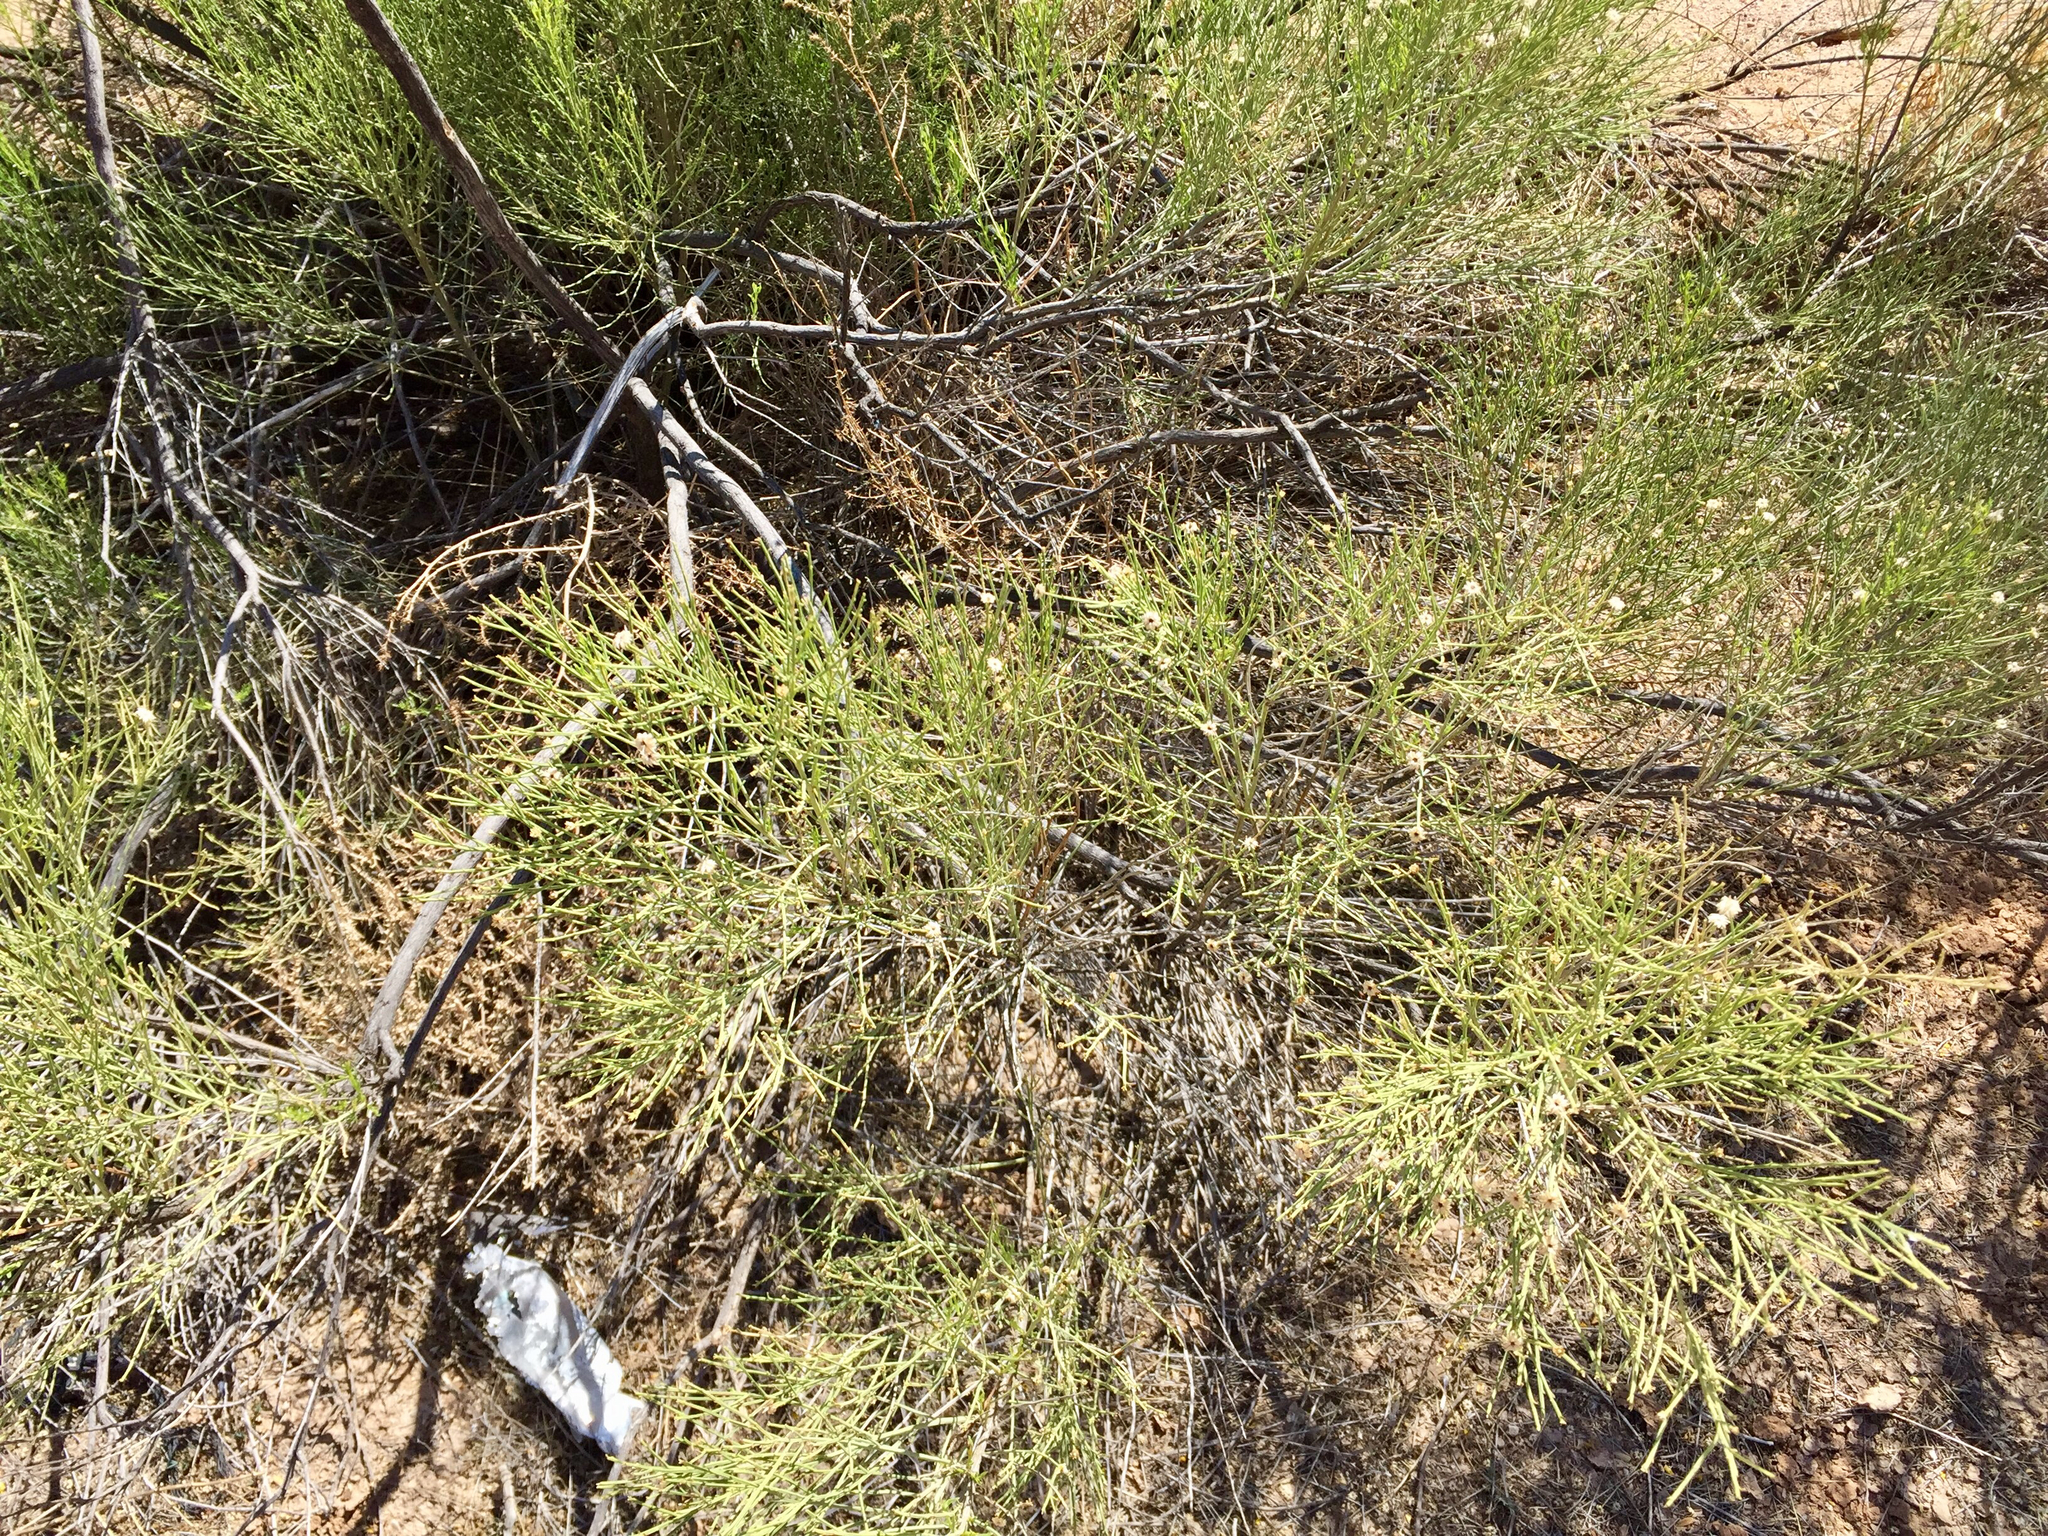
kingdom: Plantae
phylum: Tracheophyta
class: Magnoliopsida
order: Asterales
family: Asteraceae
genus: Baccharis
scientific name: Baccharis sarothroides
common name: Desert-broom
